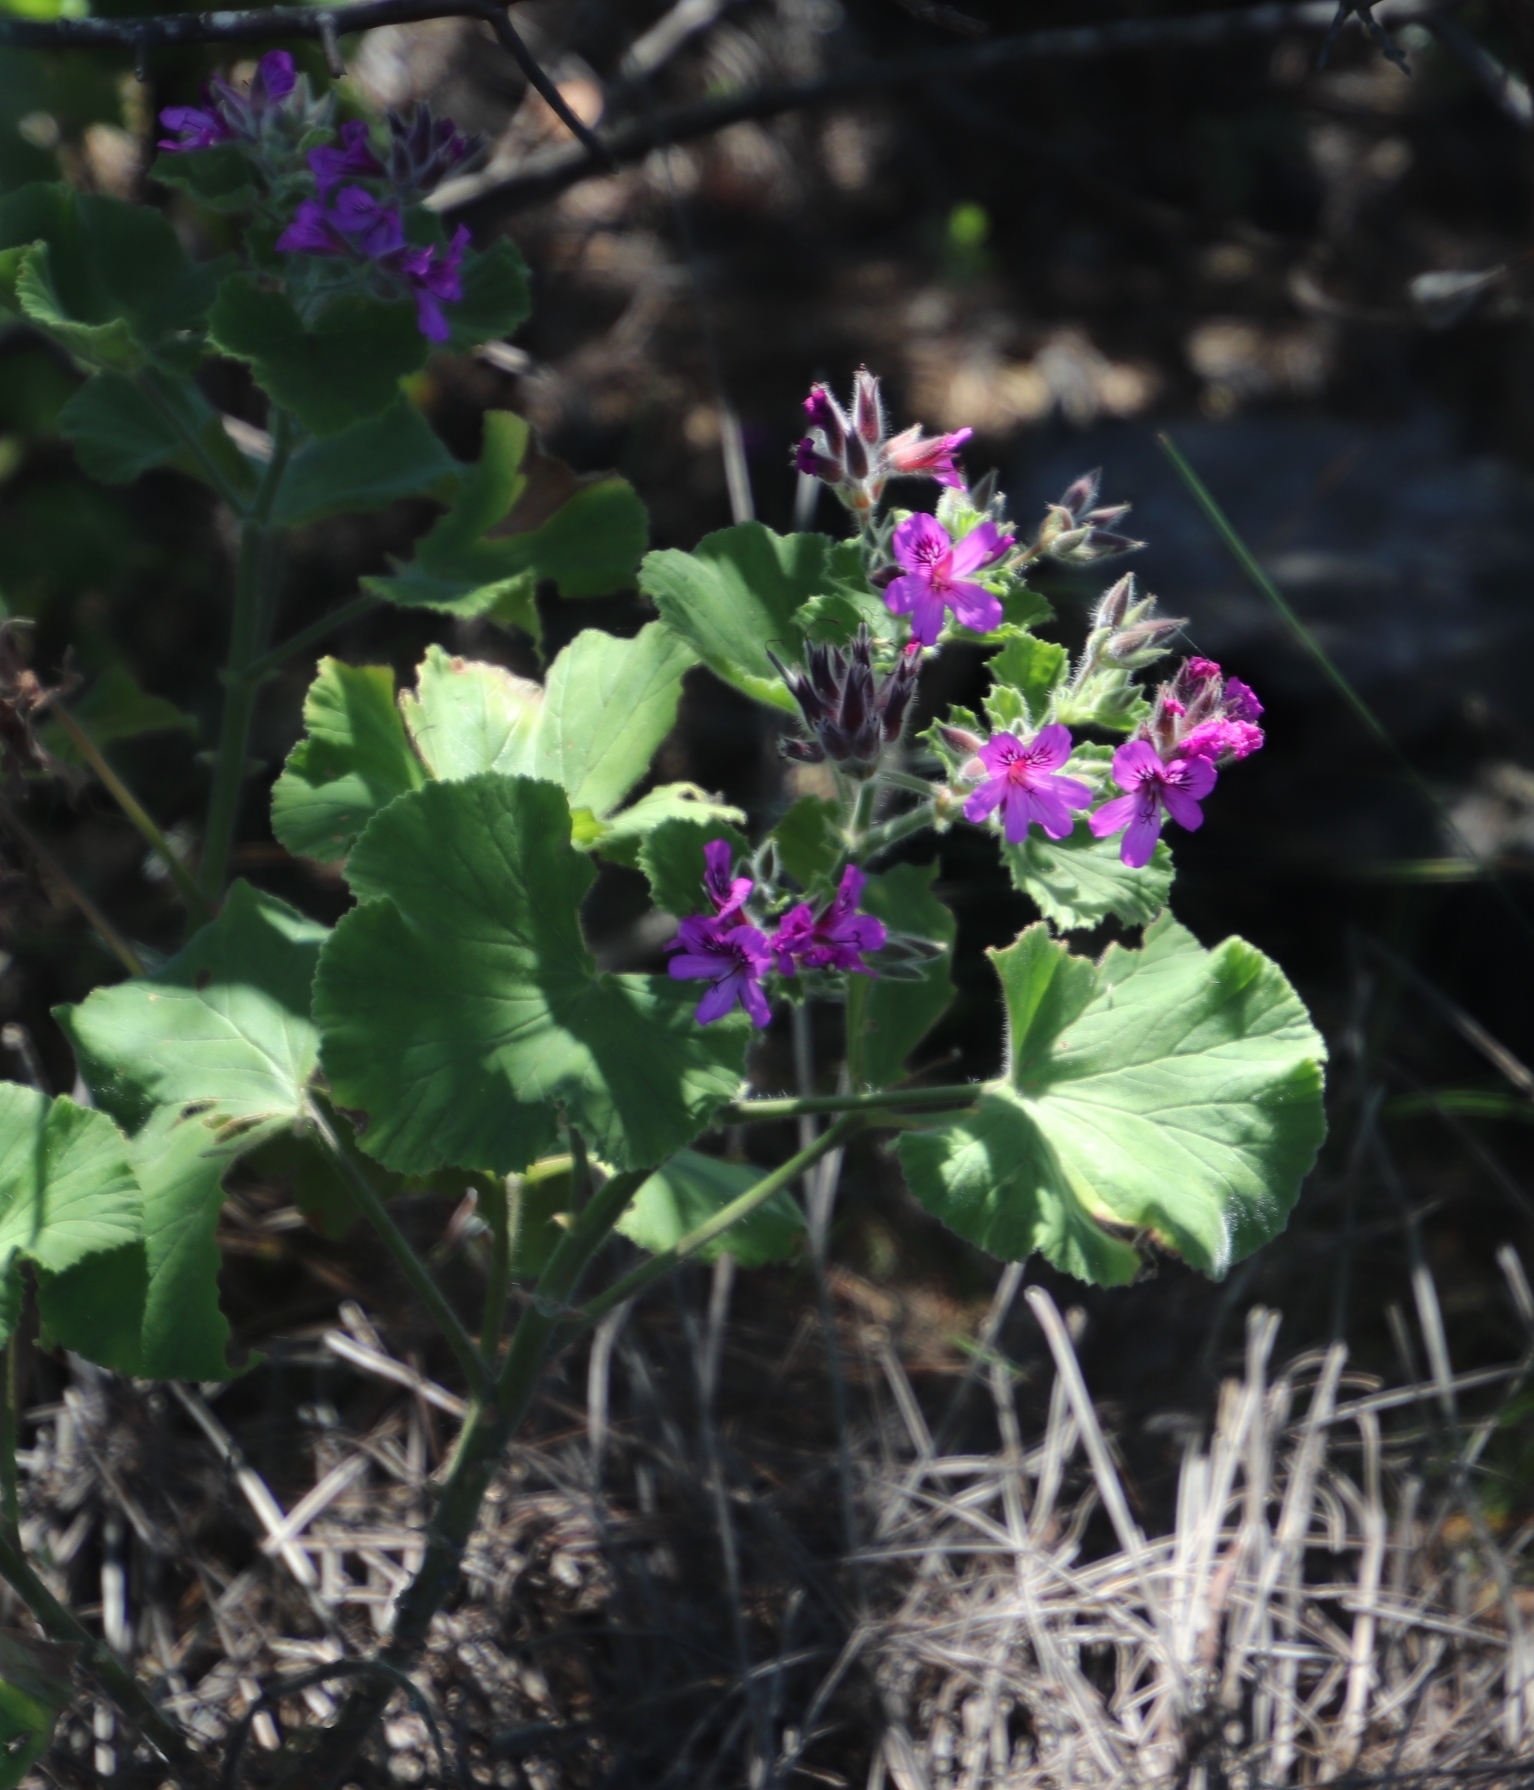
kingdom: Plantae
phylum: Tracheophyta
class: Magnoliopsida
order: Geraniales
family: Geraniaceae
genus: Pelargonium
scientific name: Pelargonium cucullatum
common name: Tree pelargonium
